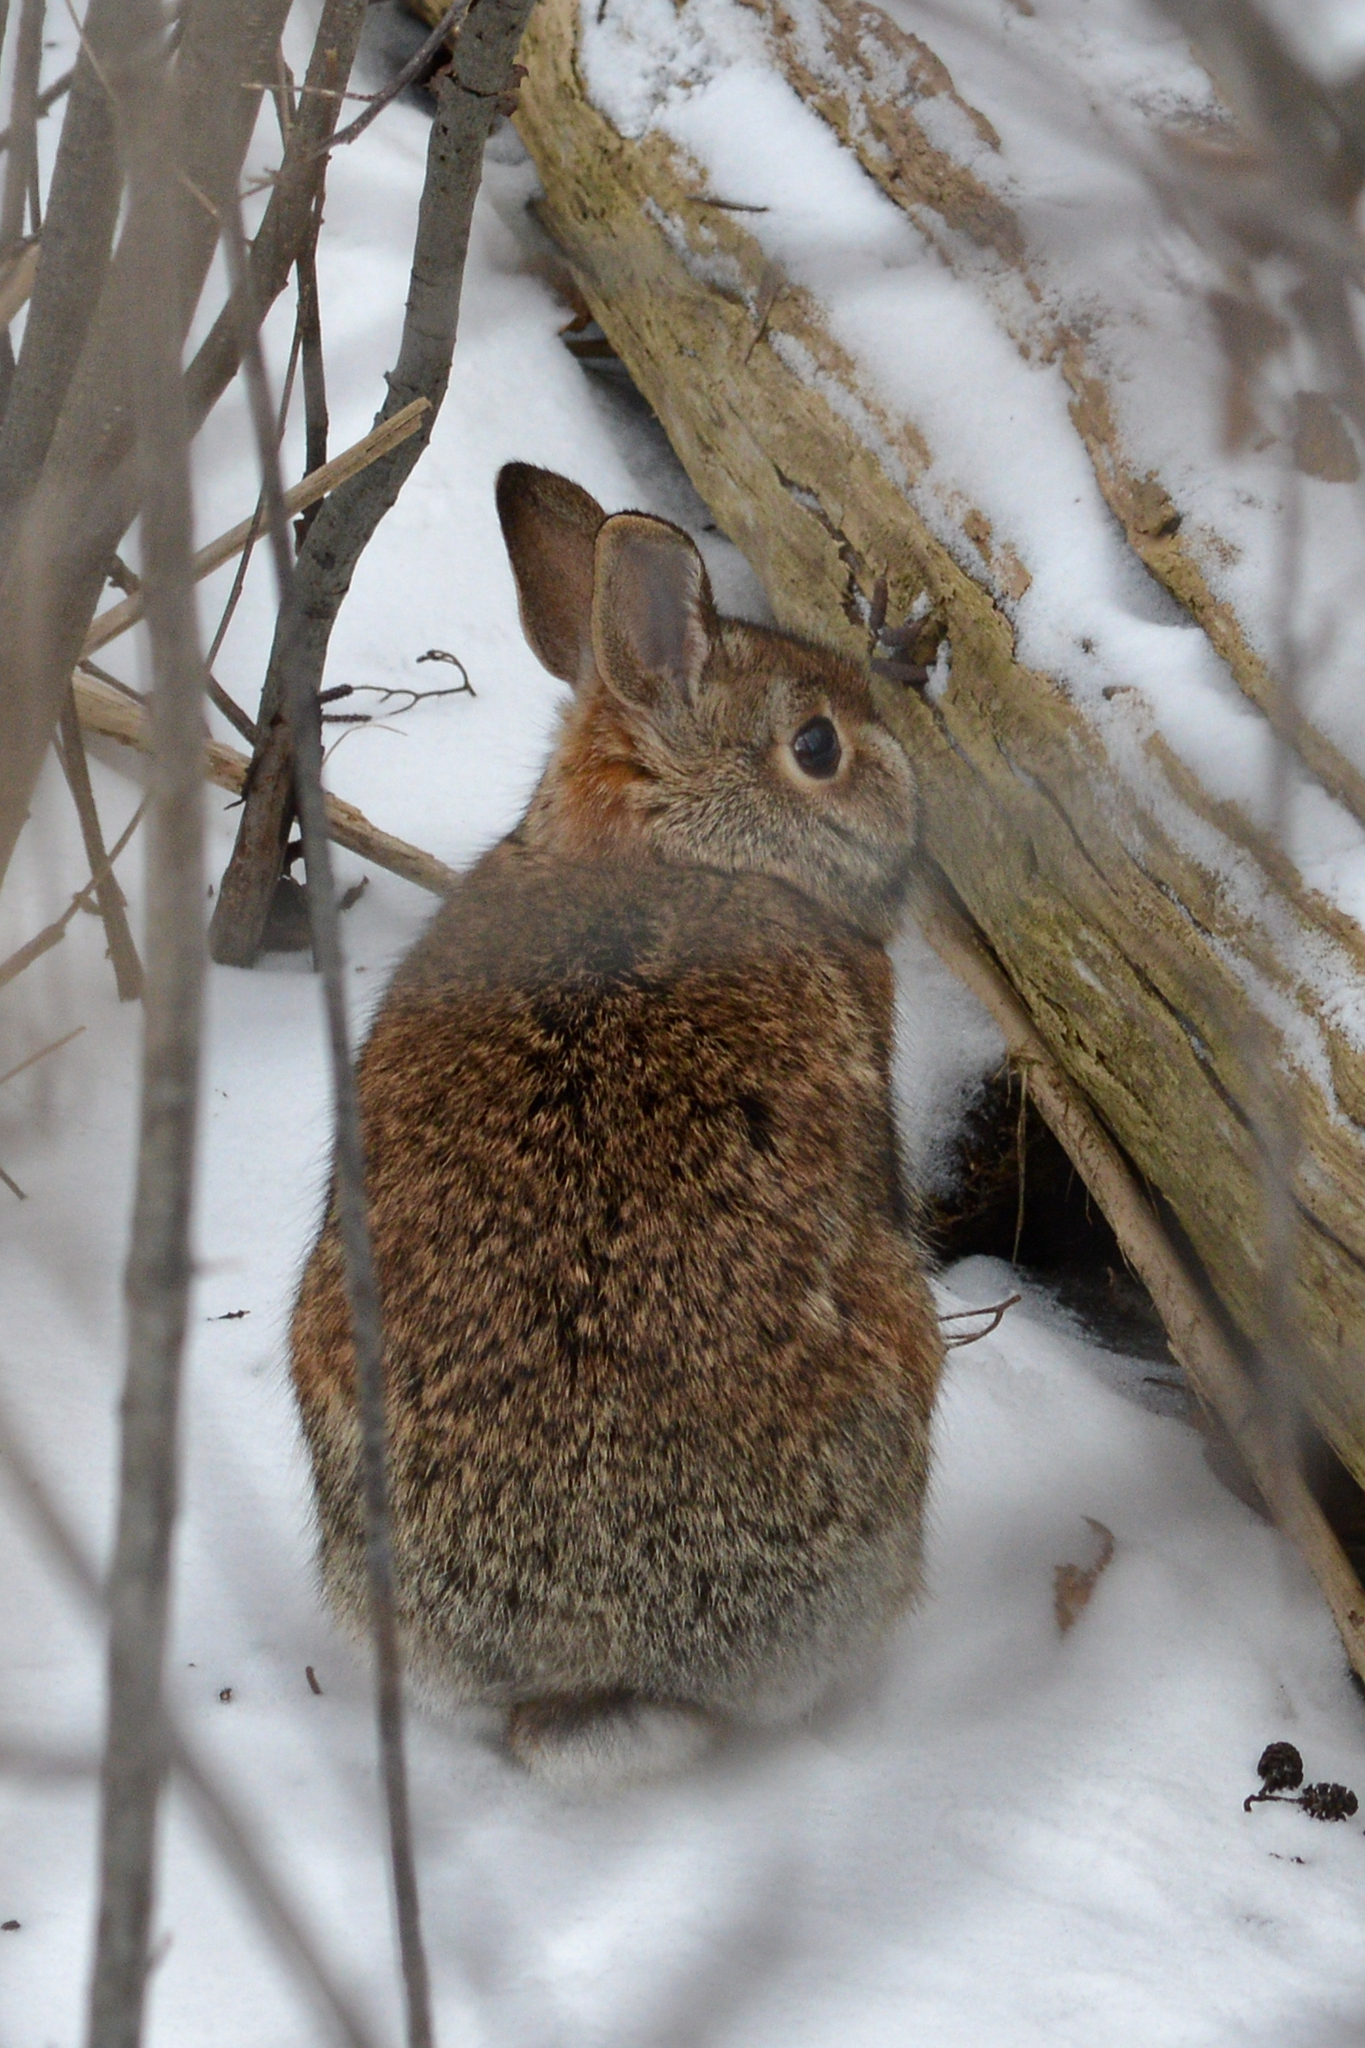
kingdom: Animalia
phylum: Chordata
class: Mammalia
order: Lagomorpha
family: Leporidae
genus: Sylvilagus
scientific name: Sylvilagus floridanus
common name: Eastern cottontail
